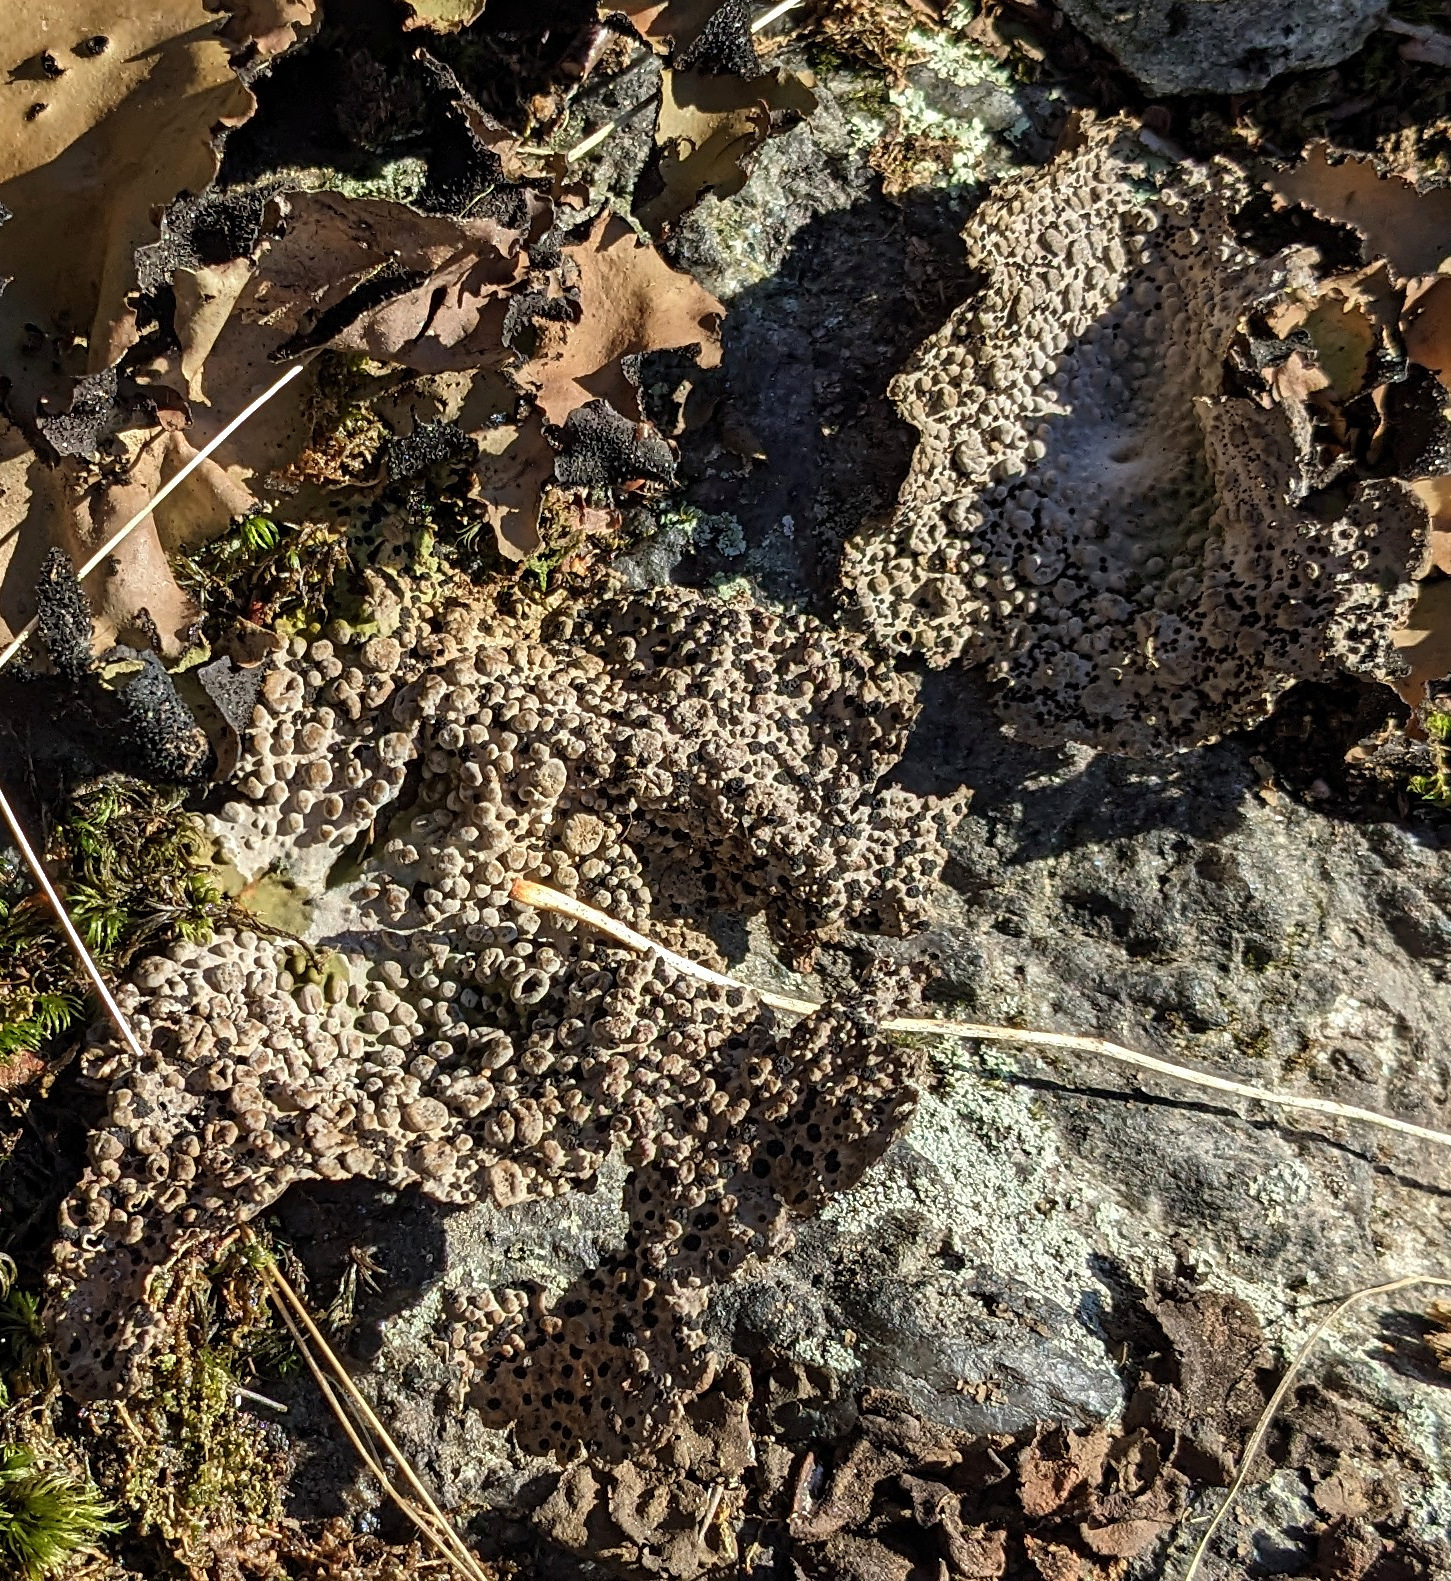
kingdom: Fungi
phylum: Ascomycota
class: Lecanoromycetes
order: Umbilicariales
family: Umbilicariaceae
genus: Lasallia
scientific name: Lasallia papulosa
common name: Common toadskin lichen
